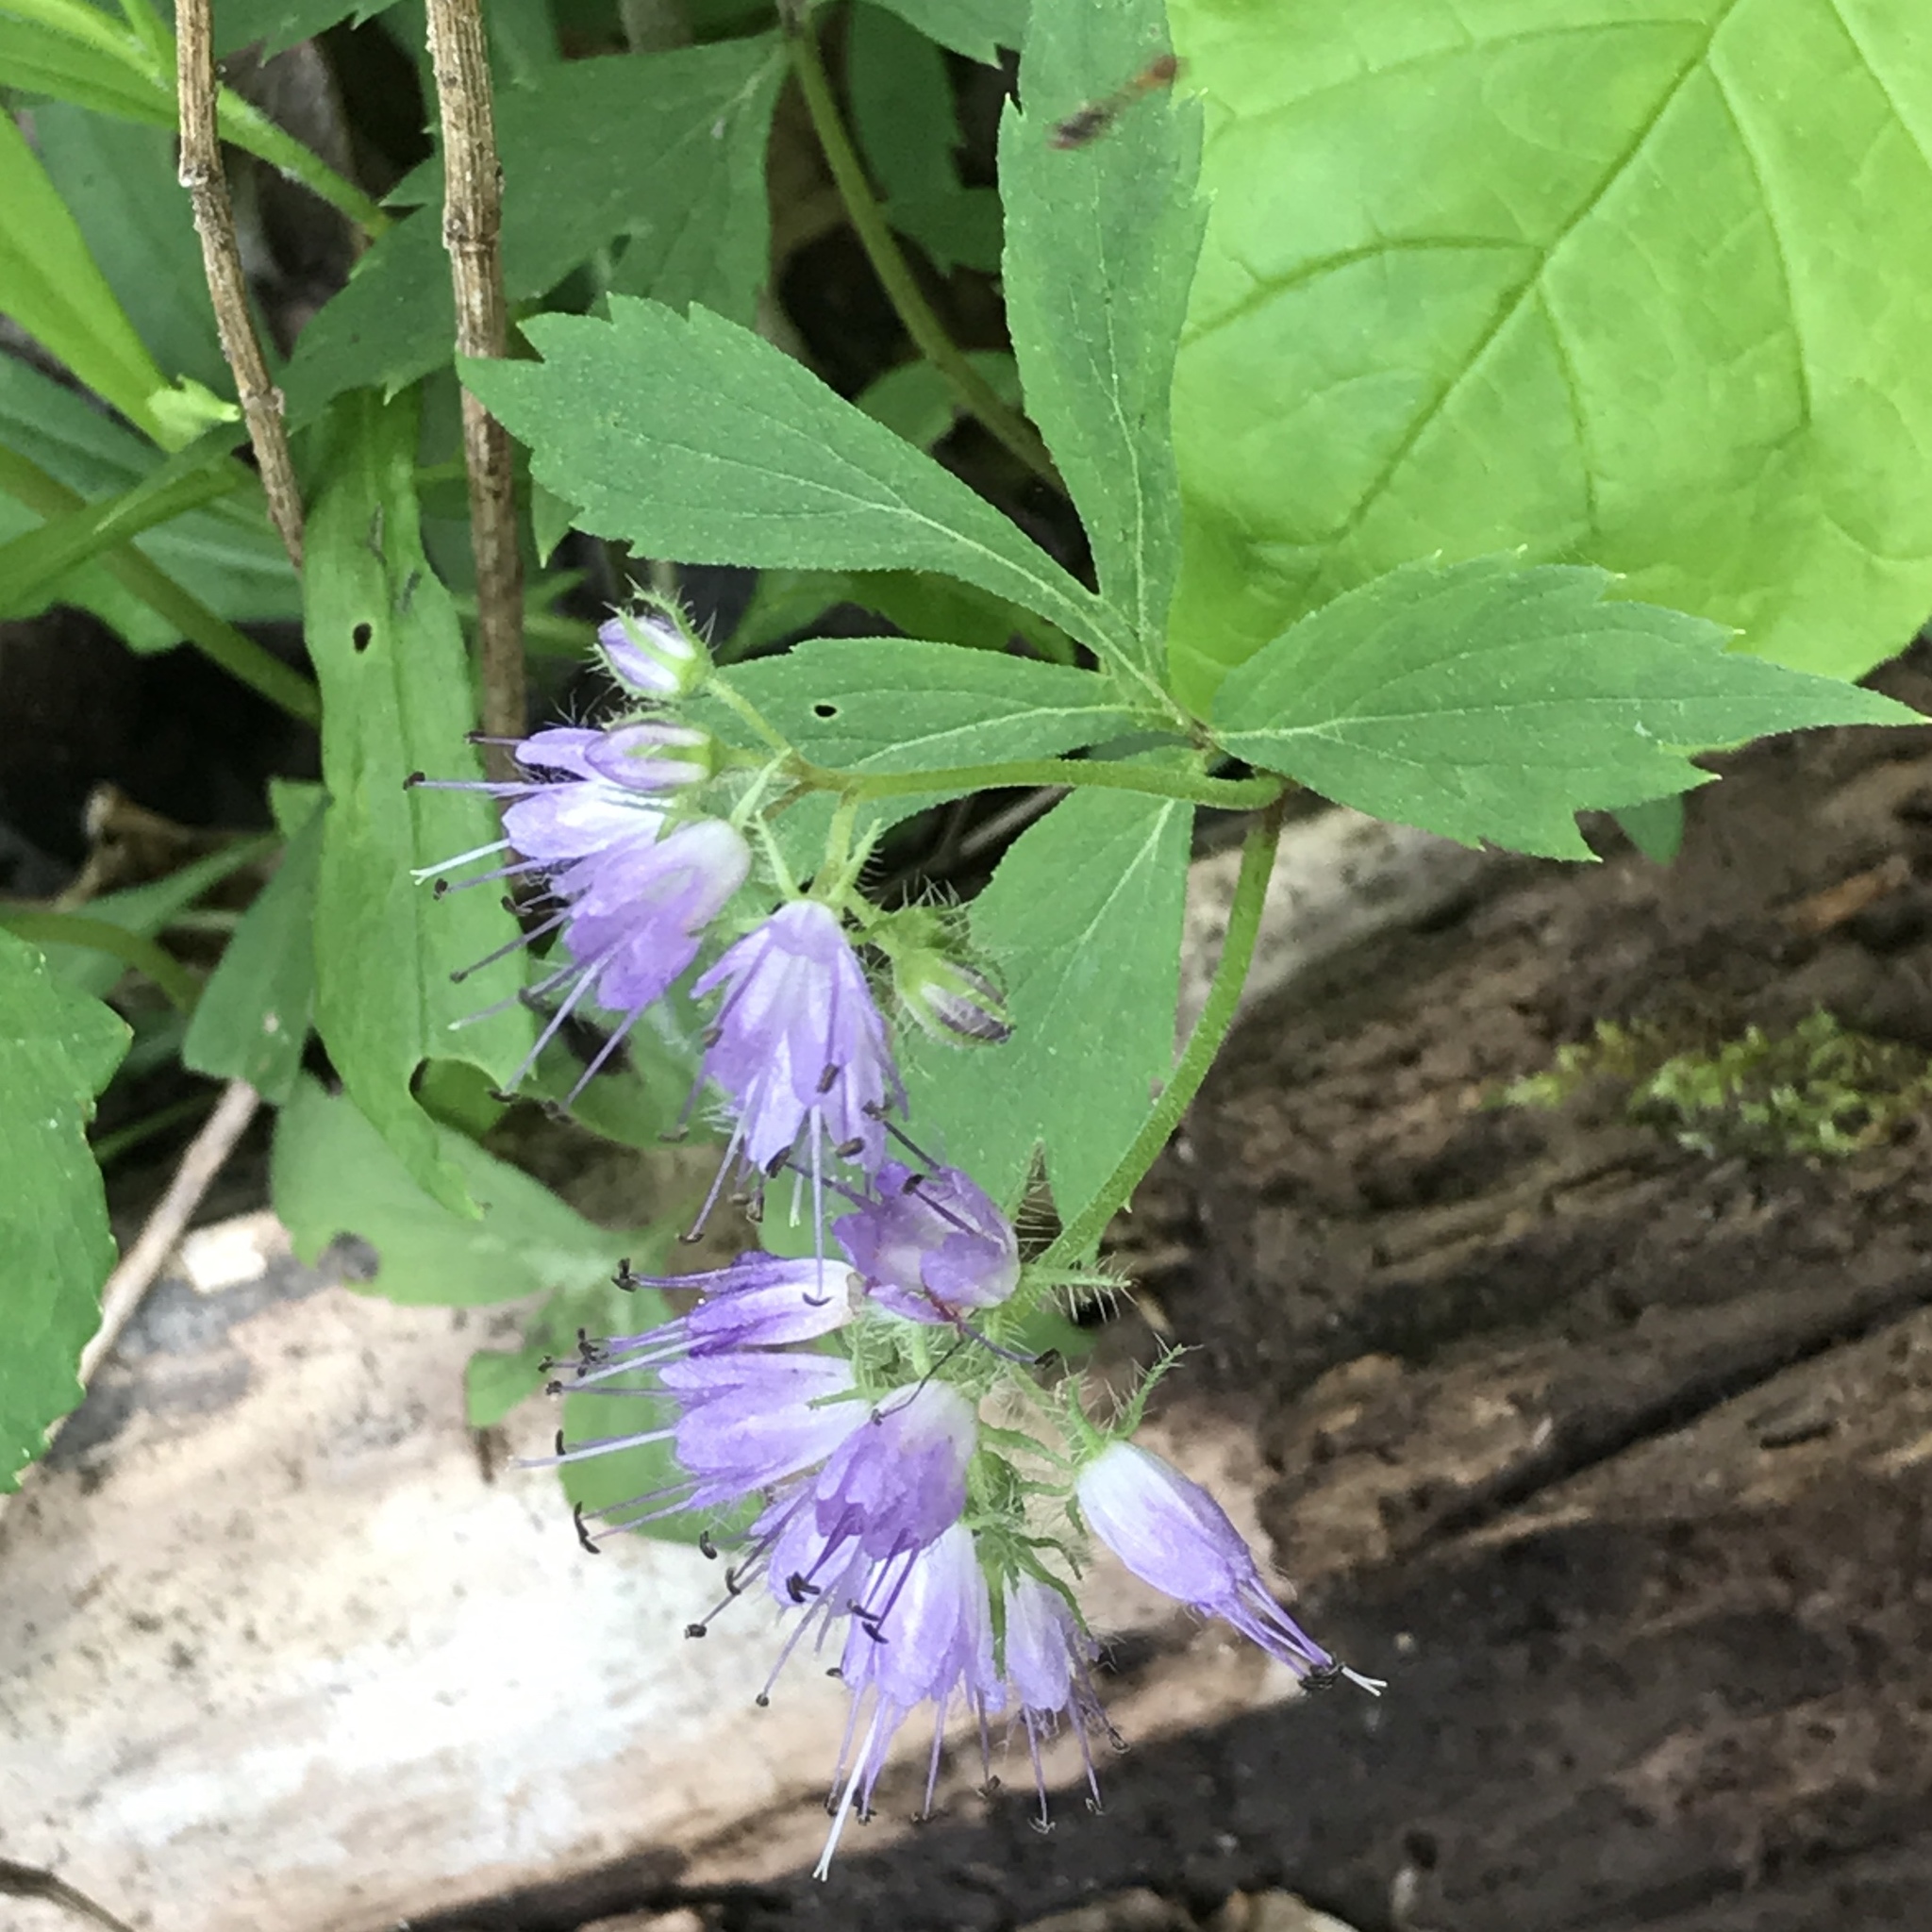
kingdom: Plantae
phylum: Tracheophyta
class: Magnoliopsida
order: Boraginales
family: Hydrophyllaceae
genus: Hydrophyllum
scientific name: Hydrophyllum virginianum
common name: Virginia waterleaf
